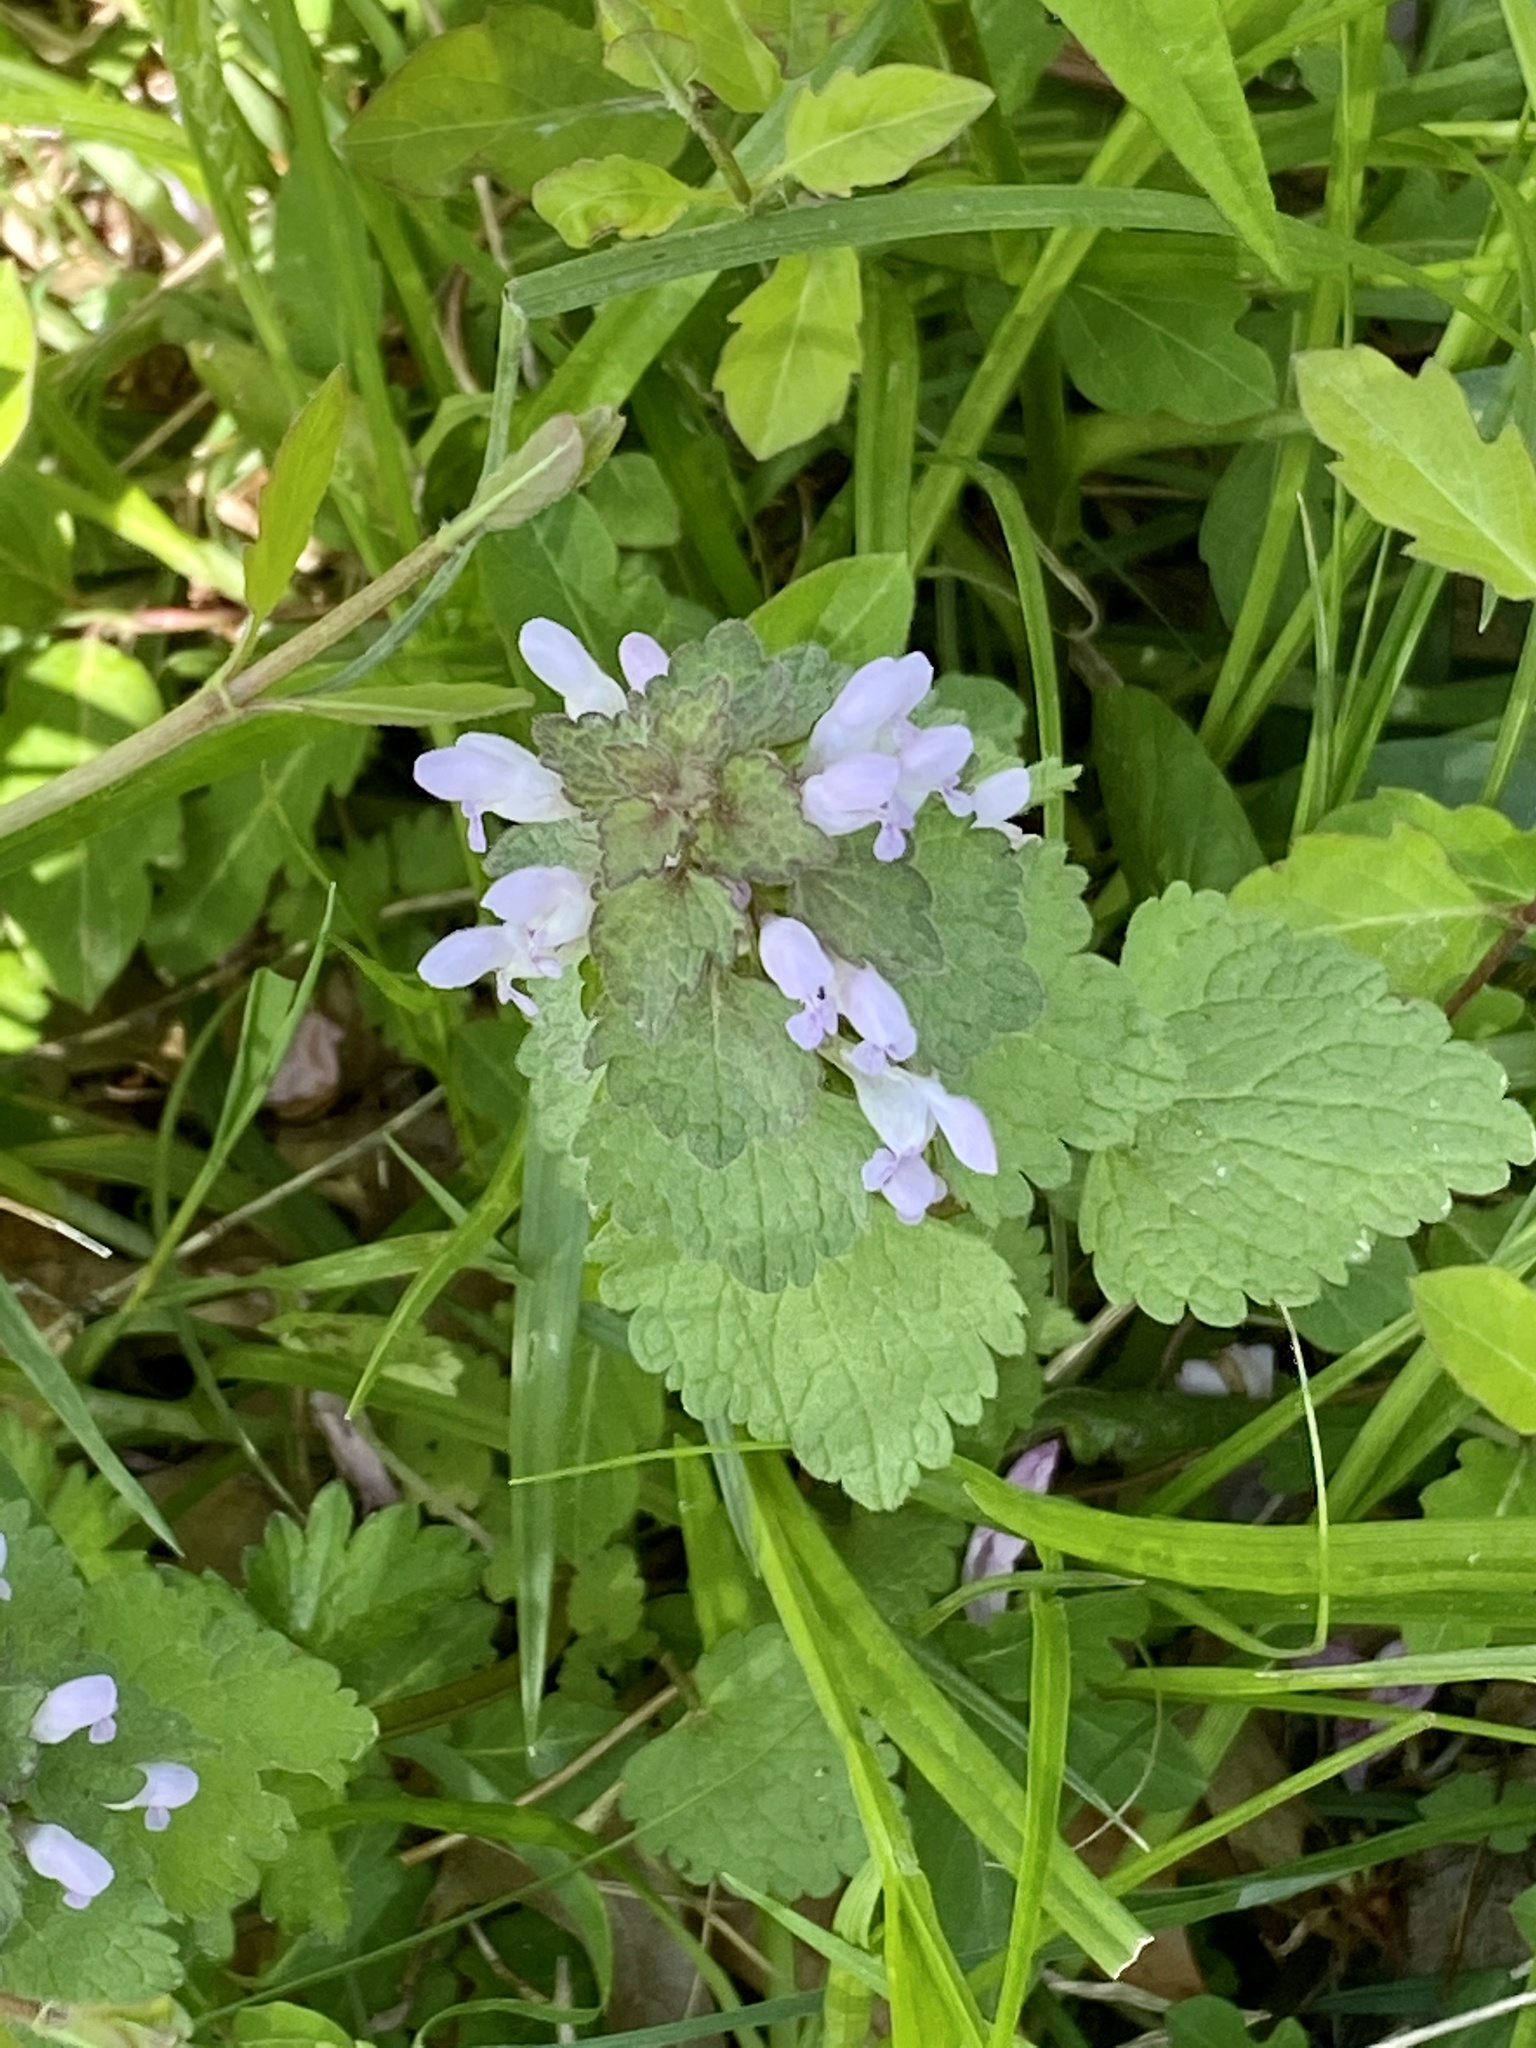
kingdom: Plantae
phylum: Tracheophyta
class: Magnoliopsida
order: Lamiales
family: Lamiaceae
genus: Lamium
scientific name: Lamium purpureum
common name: Red dead-nettle
